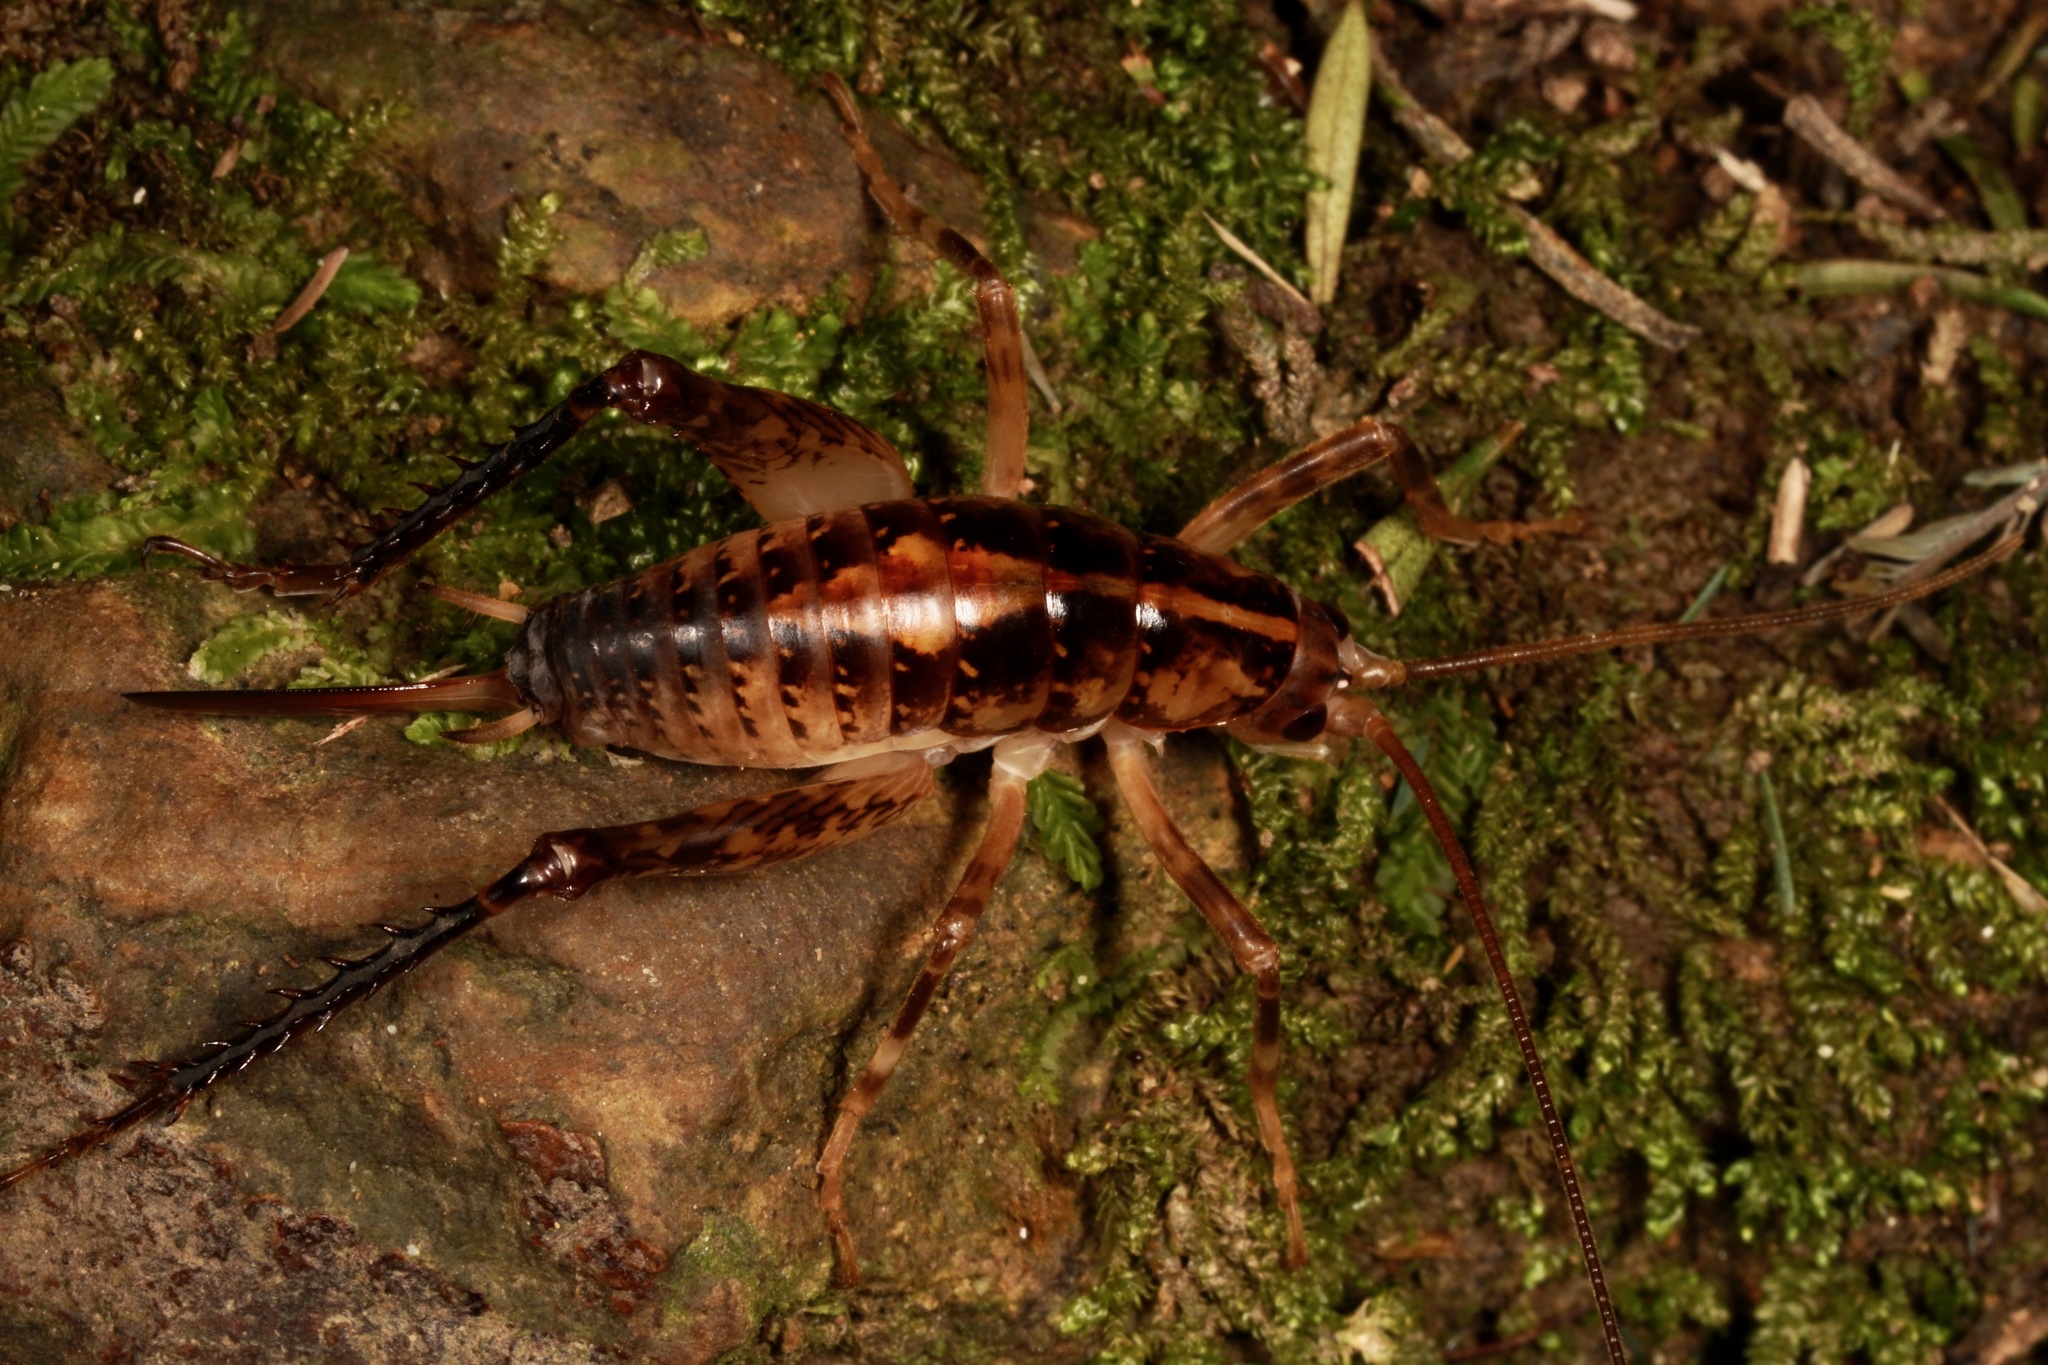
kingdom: Animalia
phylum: Arthropoda
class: Insecta
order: Orthoptera
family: Rhaphidophoridae
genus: Talitropsis
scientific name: Talitropsis sedilloti
